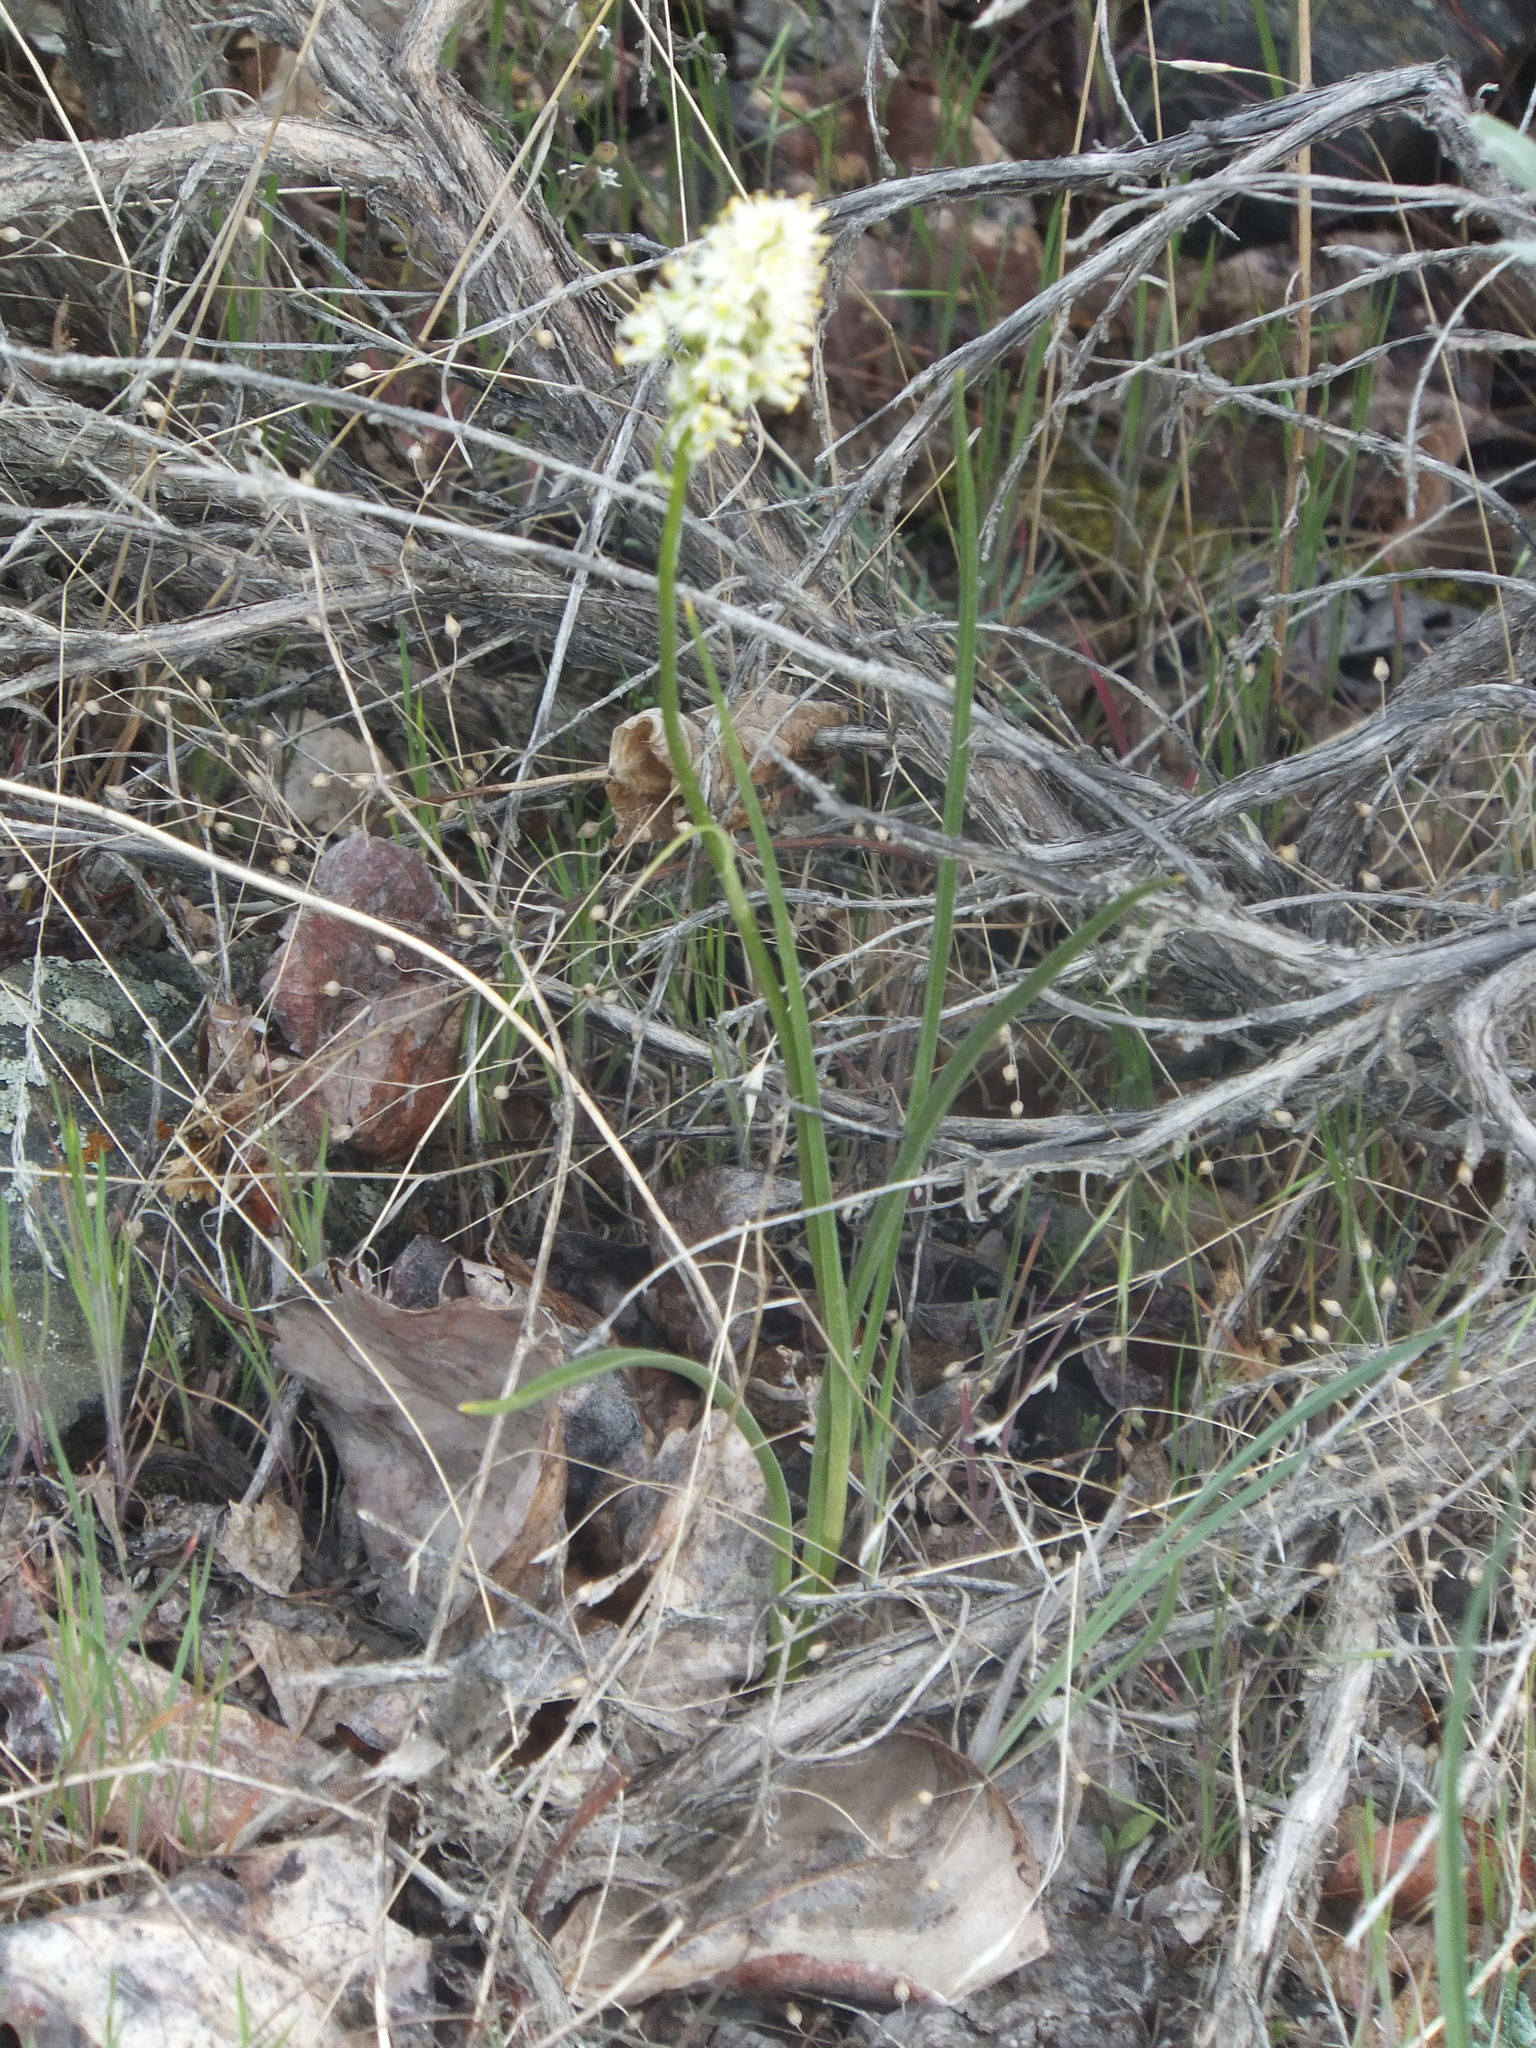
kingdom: Plantae
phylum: Tracheophyta
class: Liliopsida
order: Liliales
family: Melanthiaceae
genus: Toxicoscordion
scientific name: Toxicoscordion venenosum
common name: Meadow death camas
